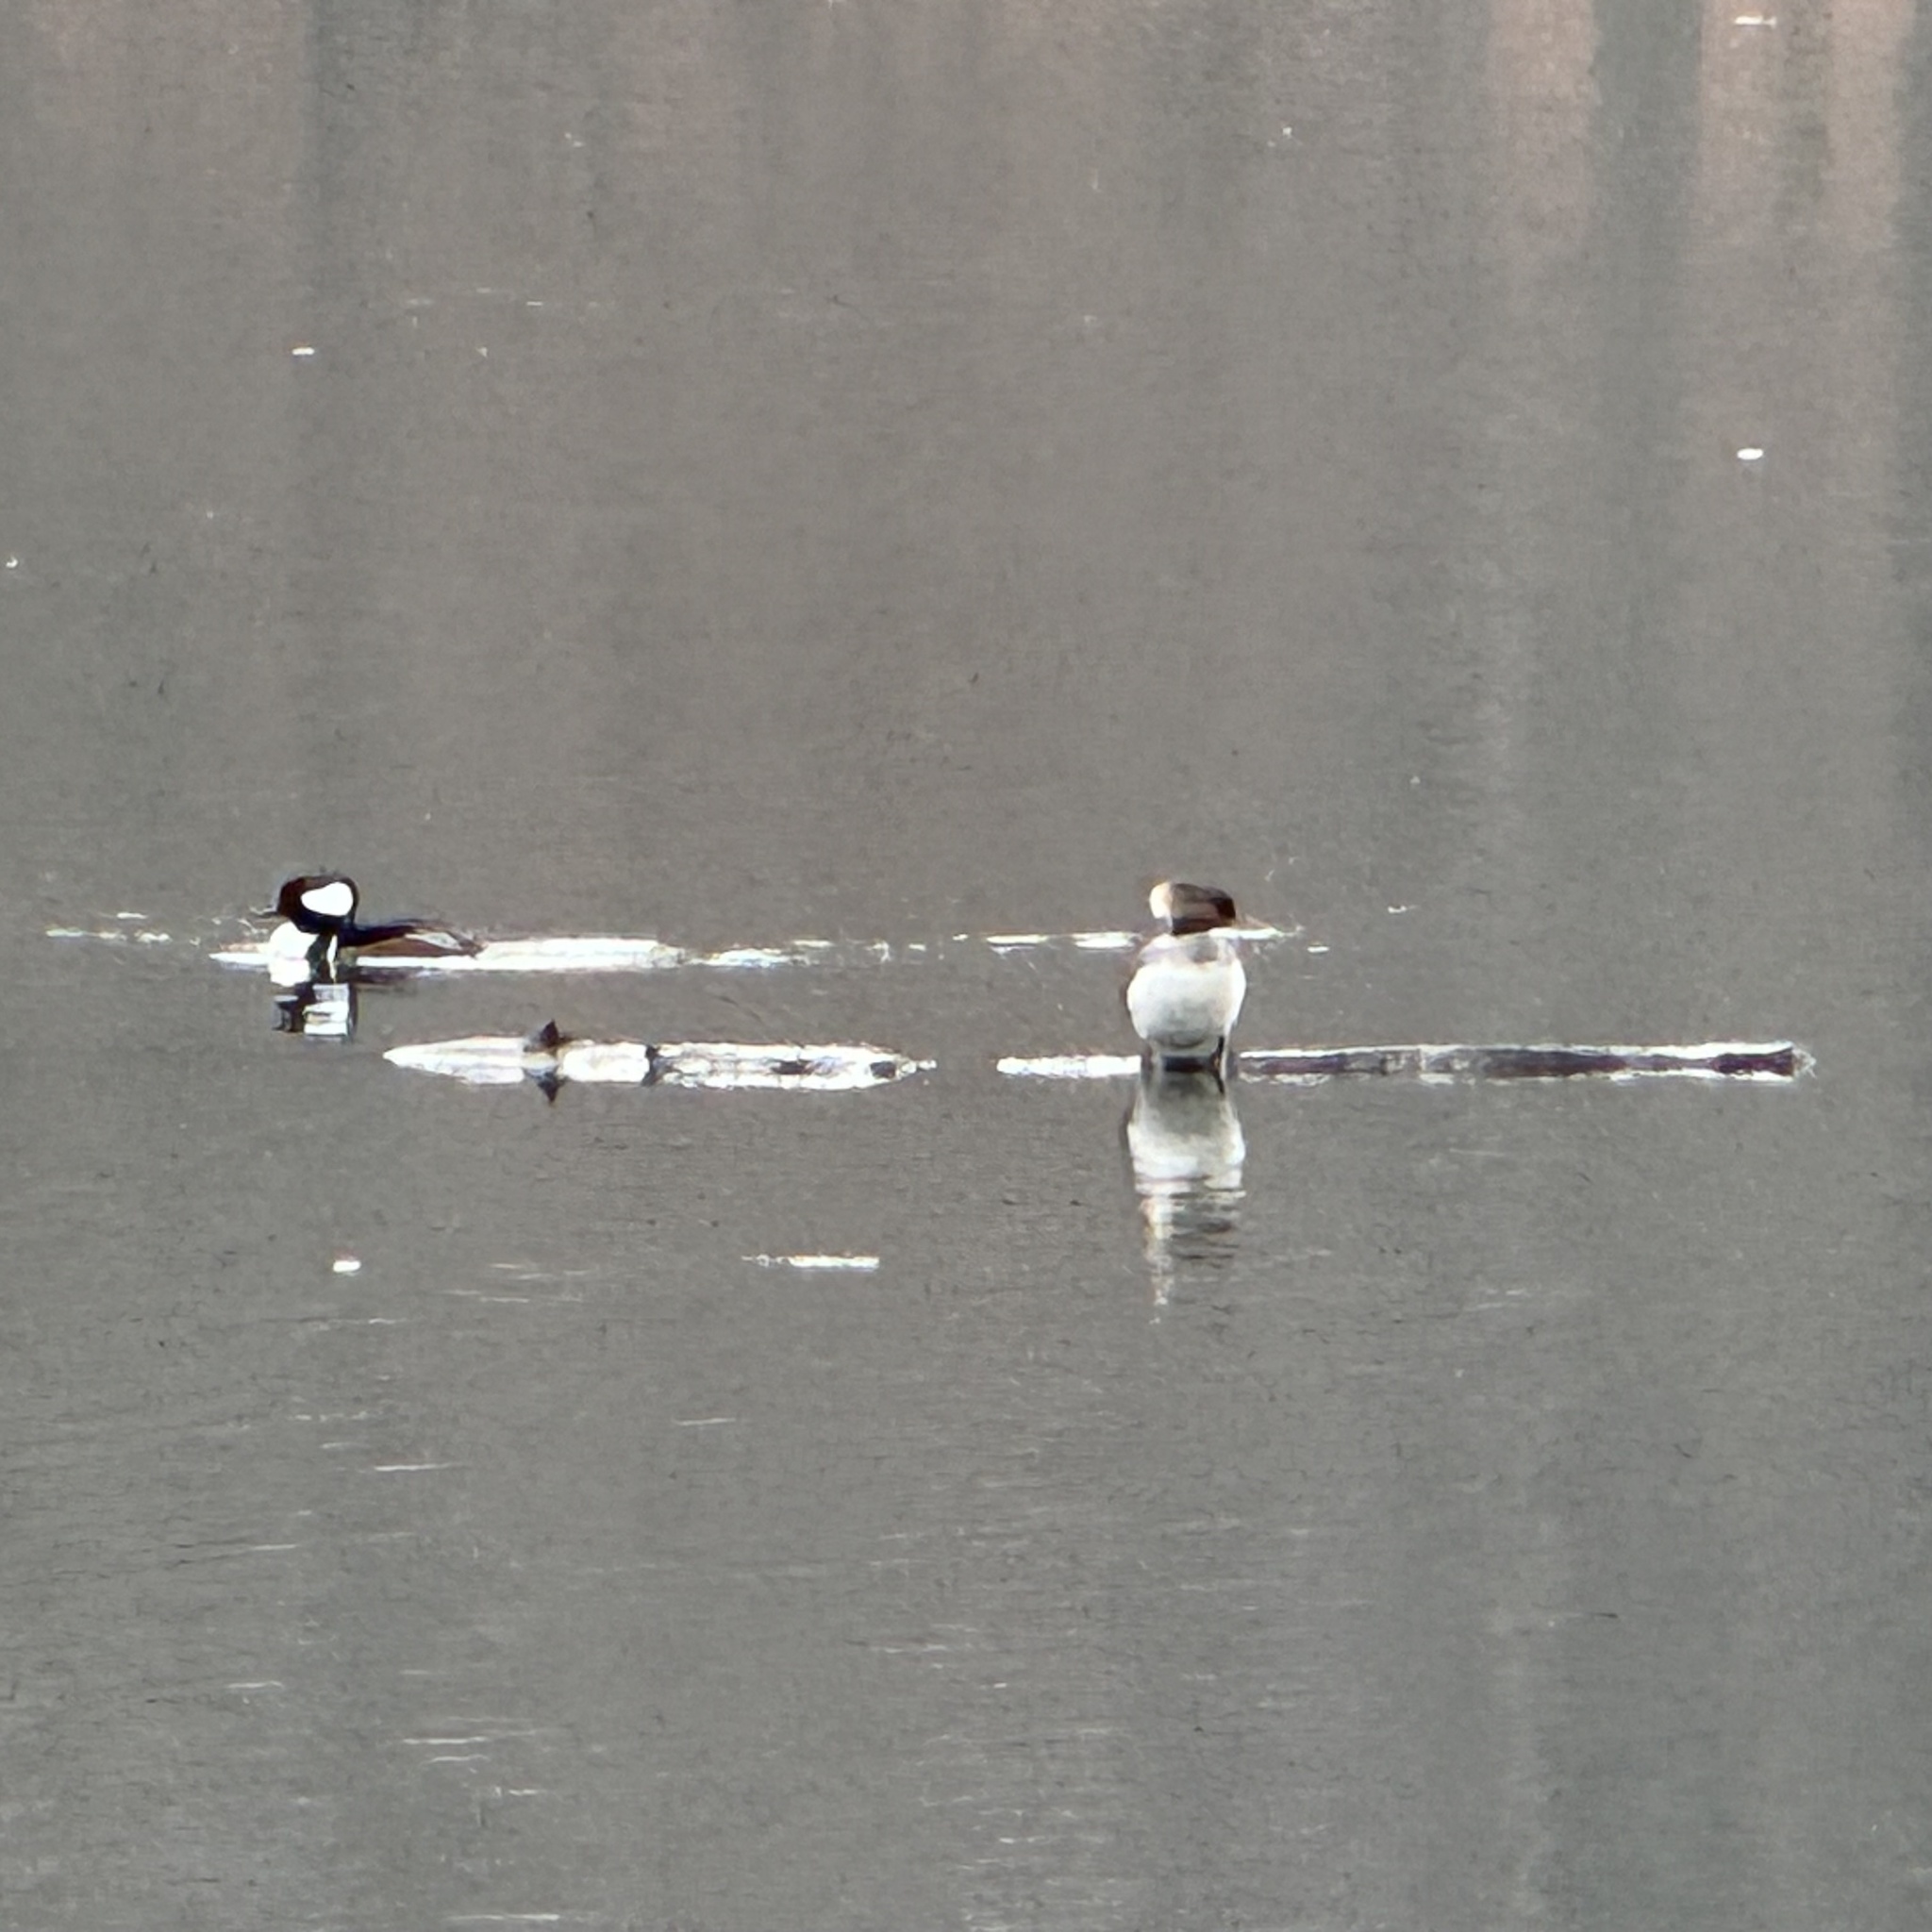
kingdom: Animalia
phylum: Chordata
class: Aves
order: Anseriformes
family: Anatidae
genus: Lophodytes
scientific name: Lophodytes cucullatus
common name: Hooded merganser
